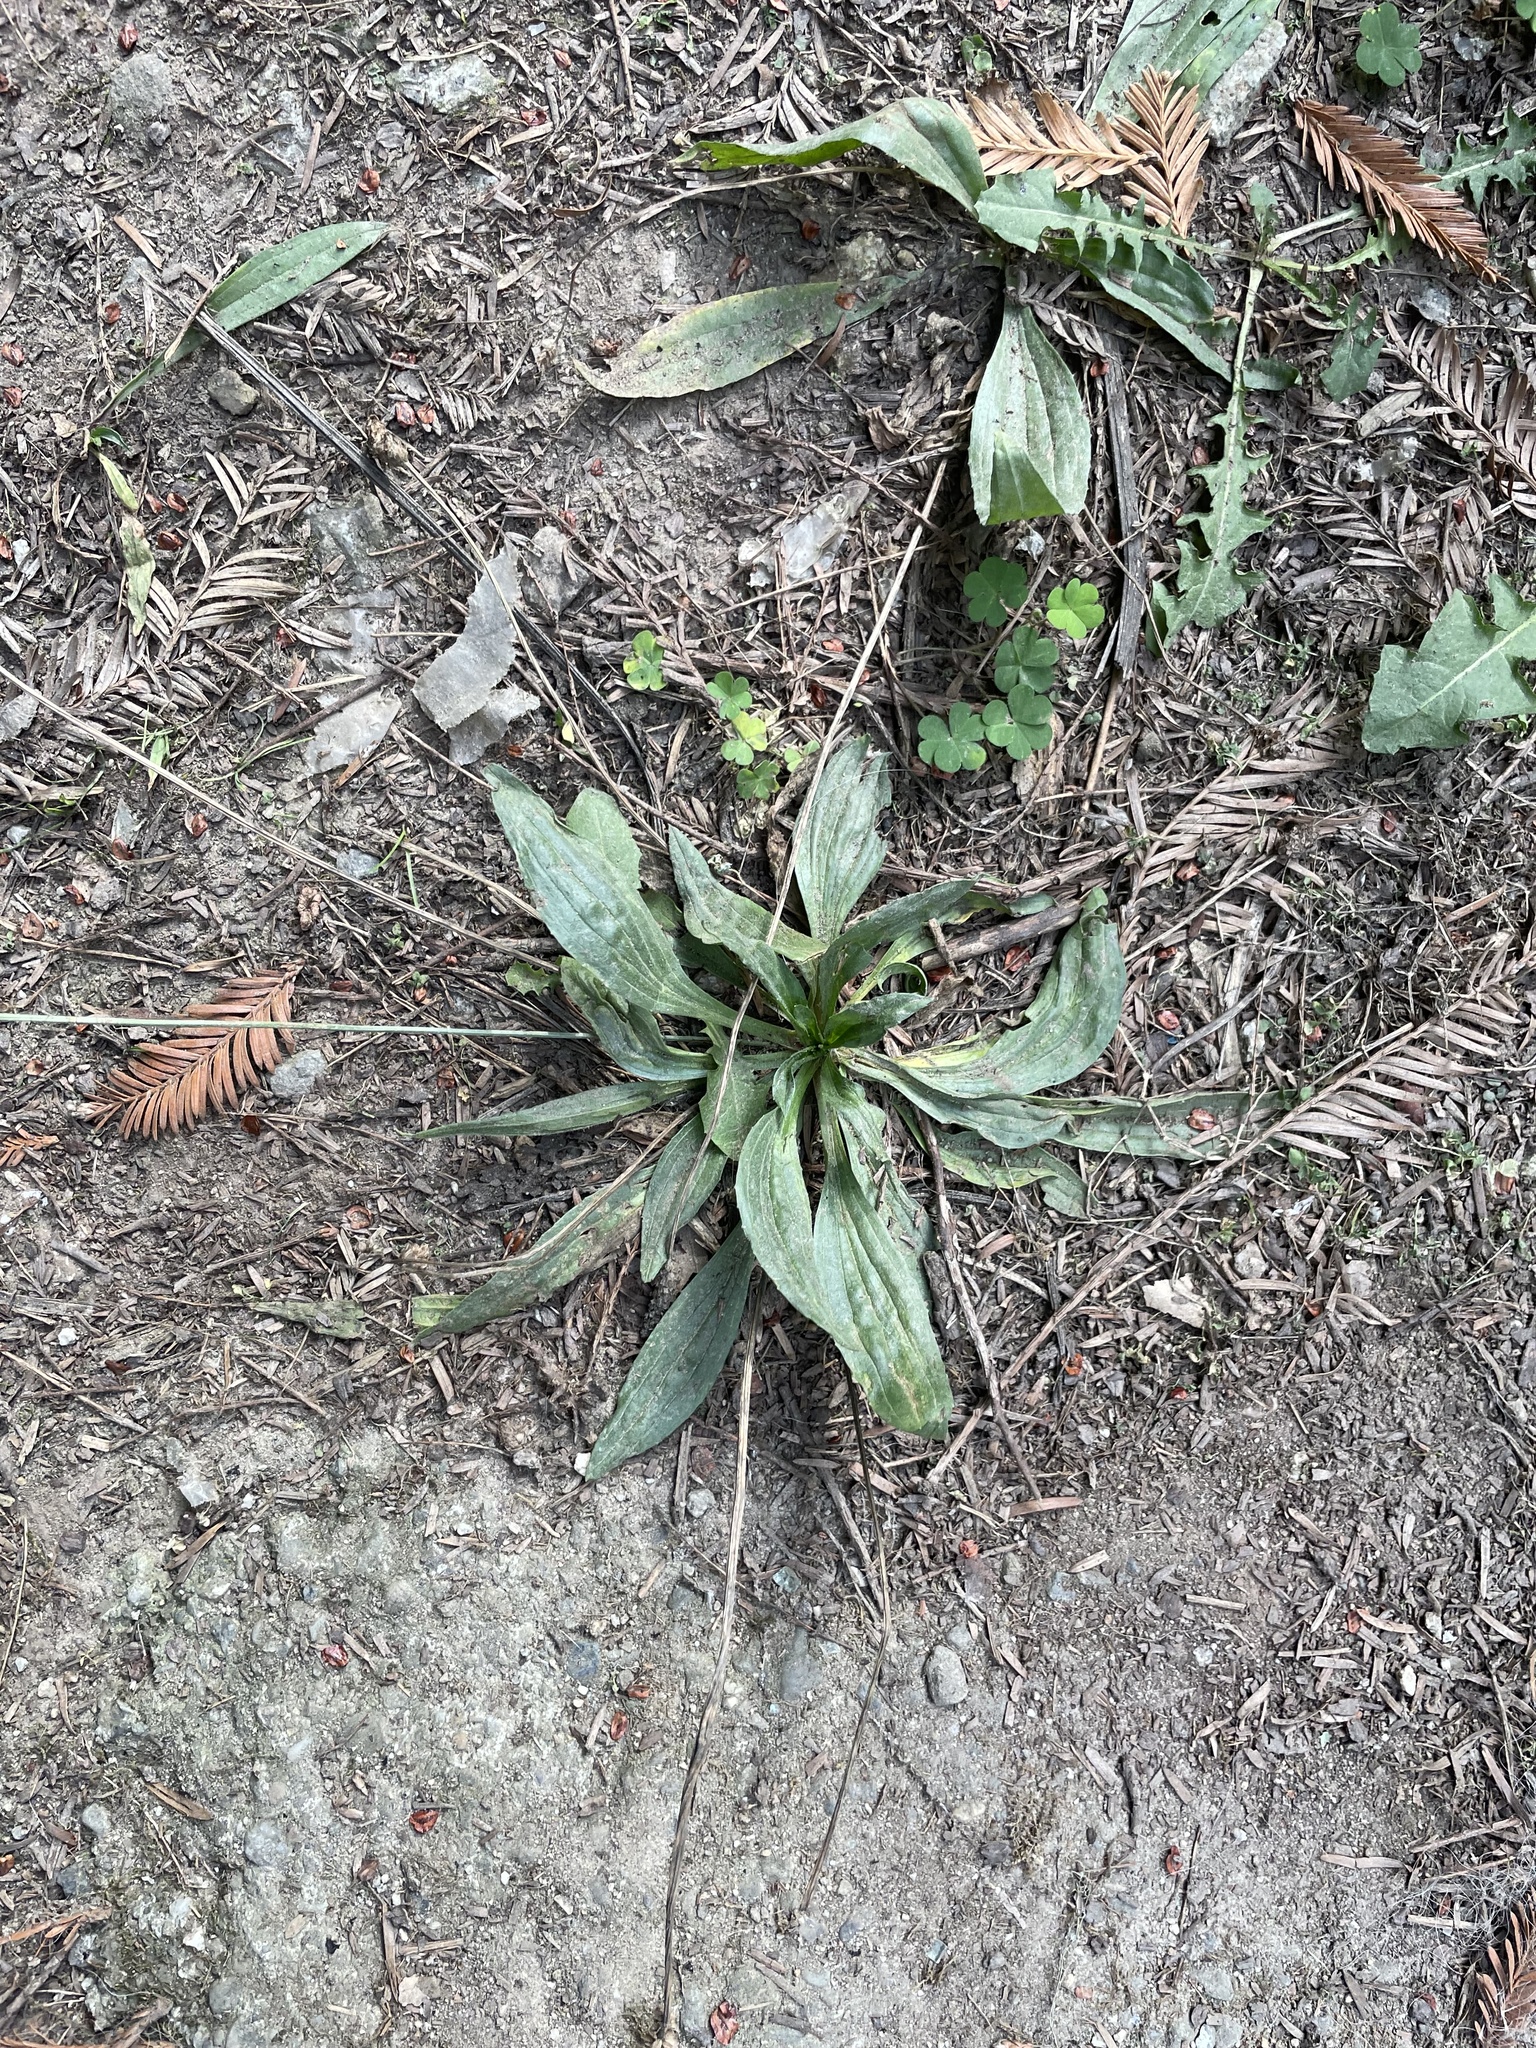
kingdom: Plantae
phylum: Tracheophyta
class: Magnoliopsida
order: Lamiales
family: Plantaginaceae
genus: Plantago
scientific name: Plantago lanceolata
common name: Ribwort plantain
